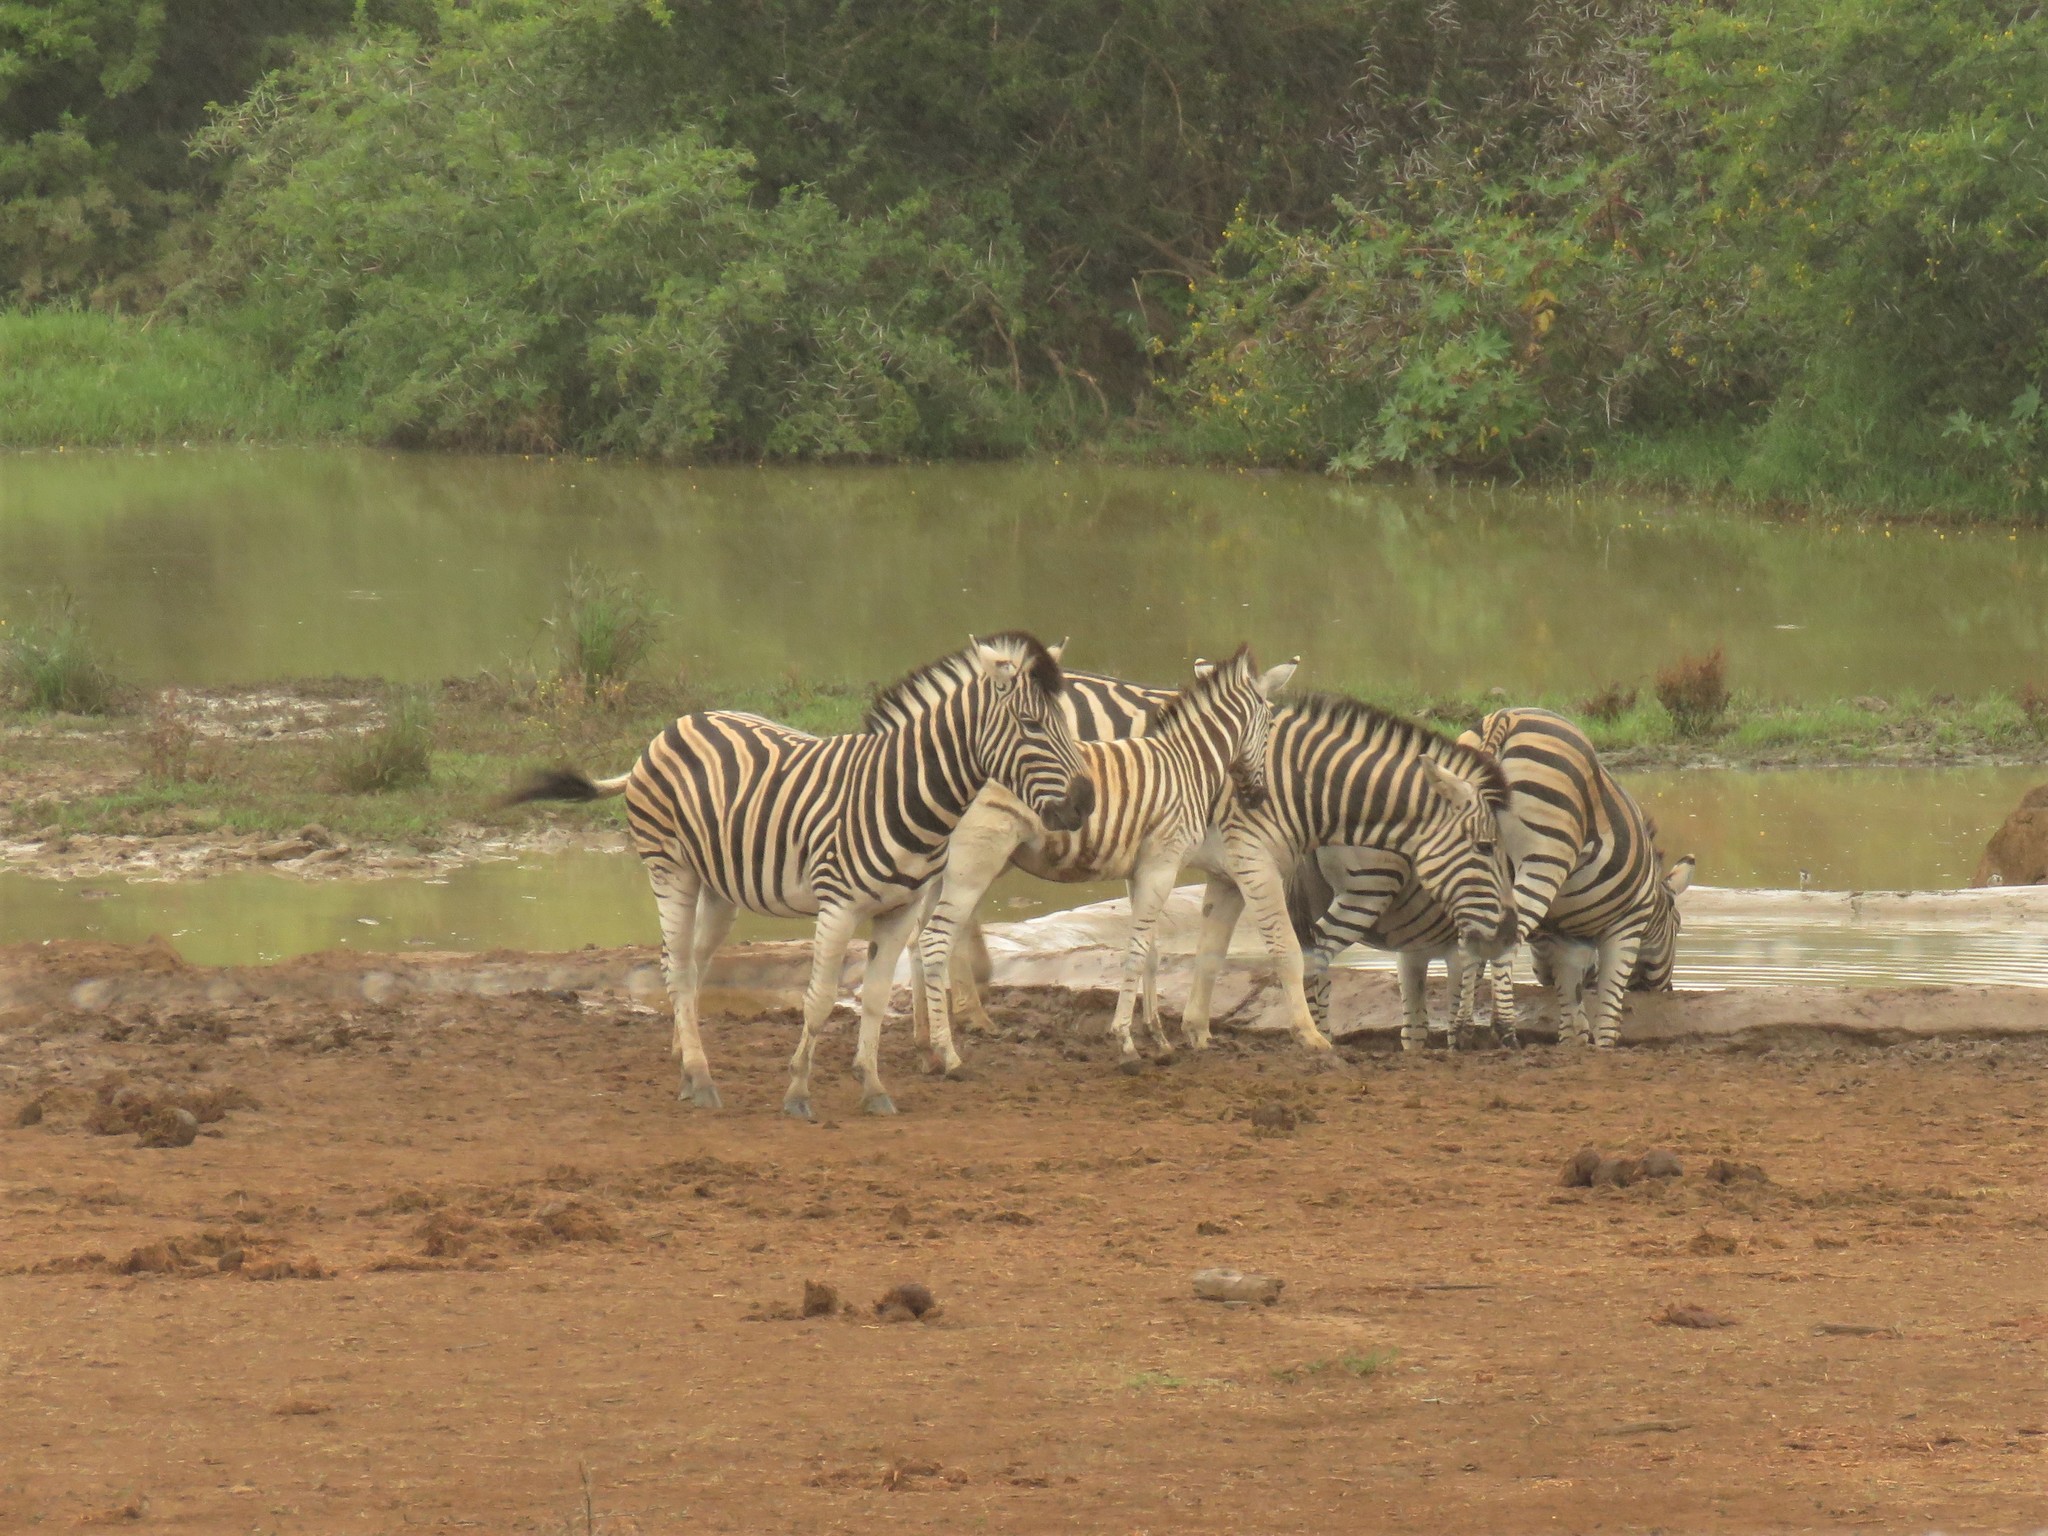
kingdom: Animalia
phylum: Chordata
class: Mammalia
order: Perissodactyla
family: Equidae
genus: Equus
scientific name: Equus quagga
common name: Plains zebra
